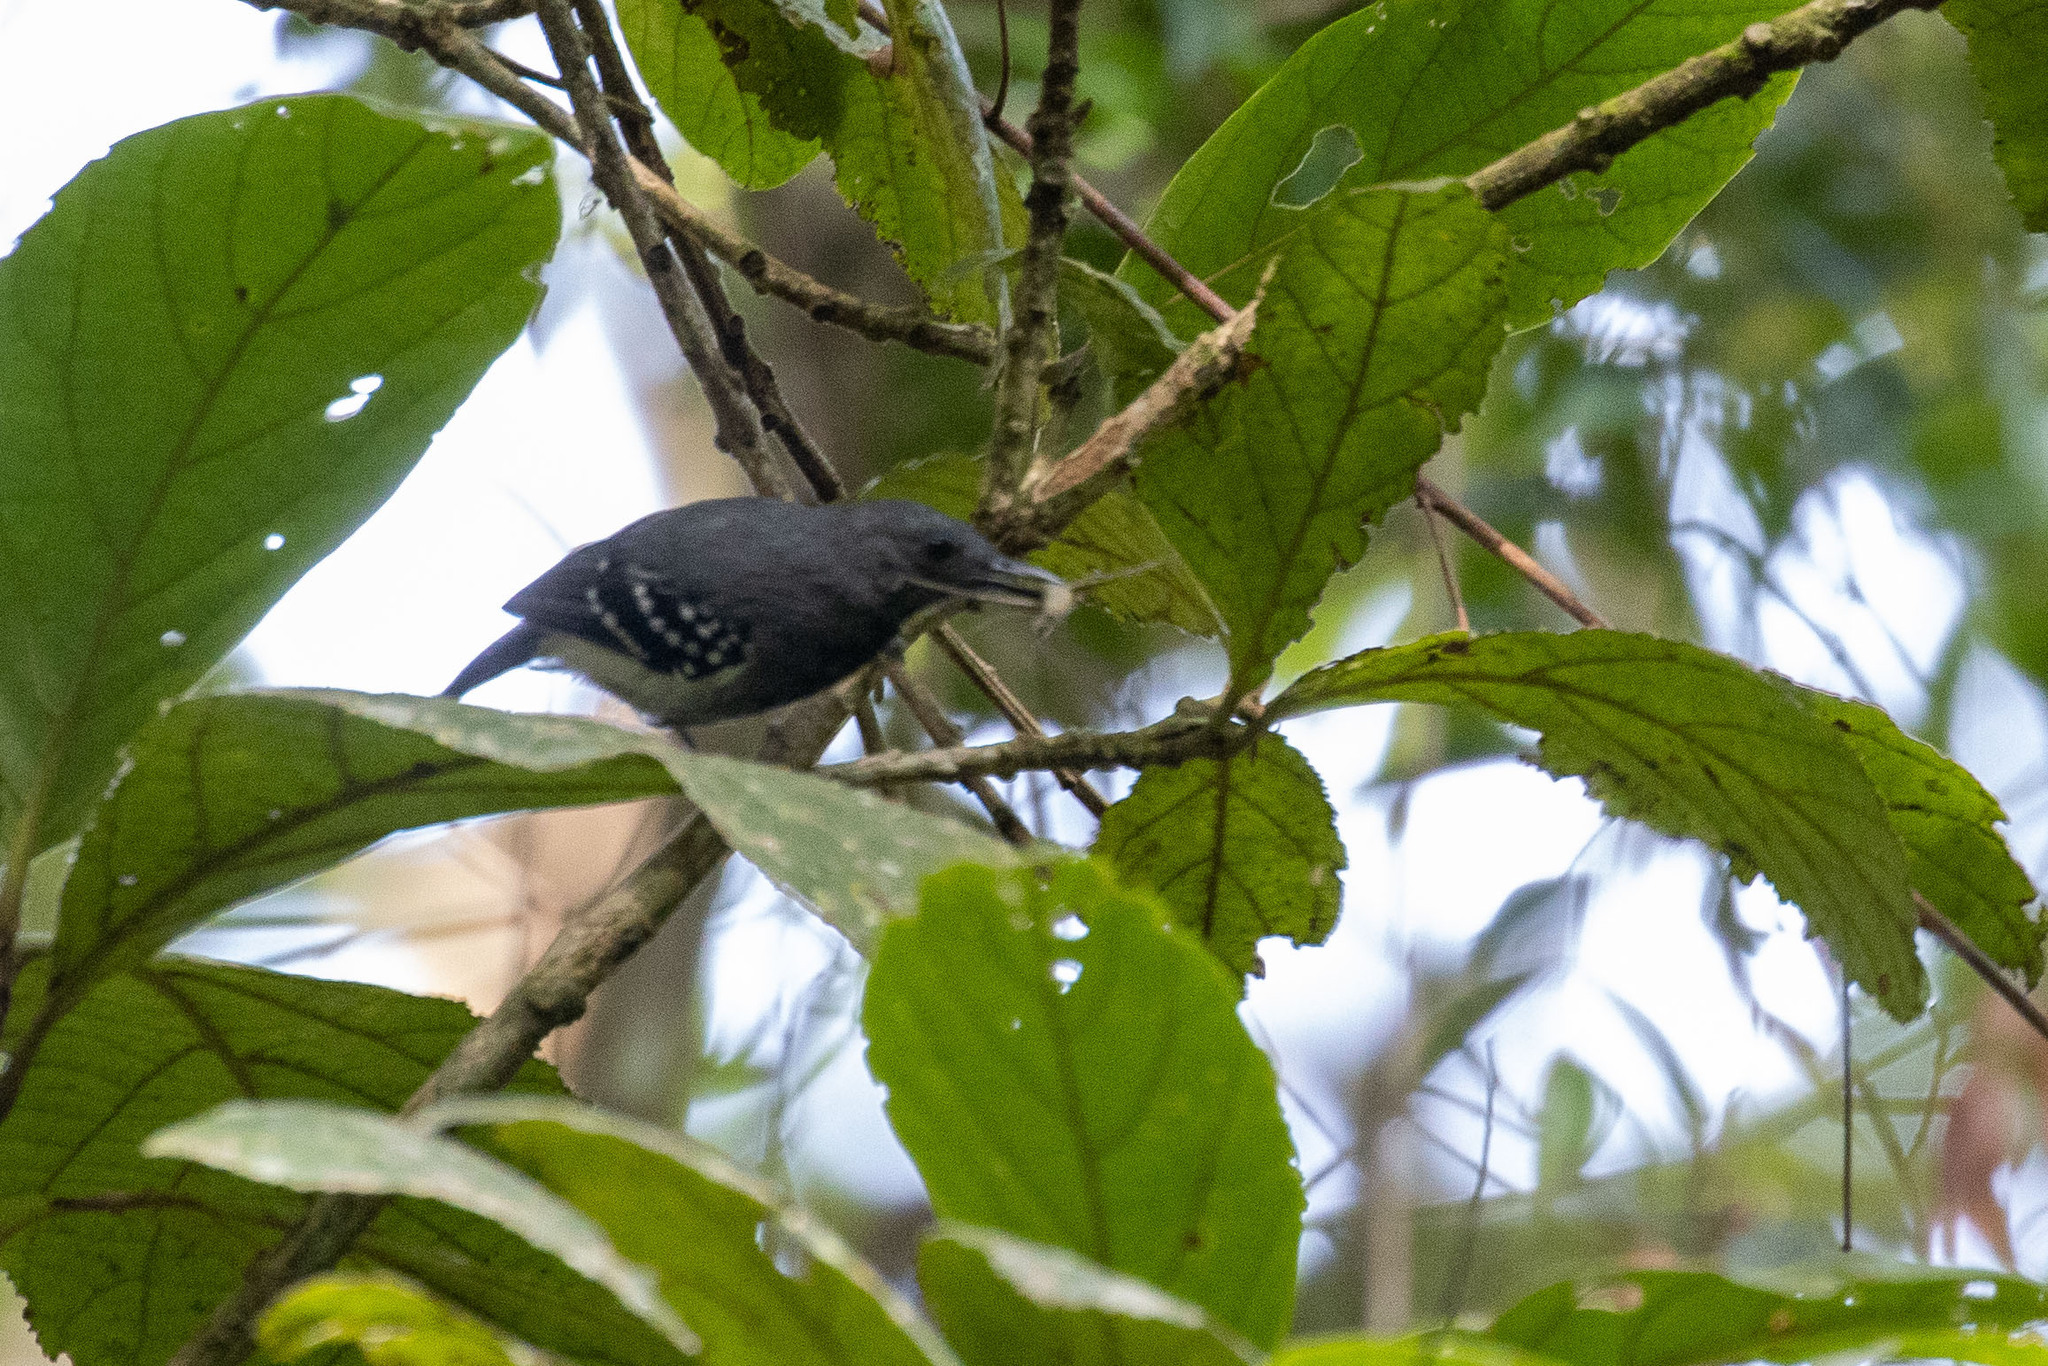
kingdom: Animalia
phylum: Chordata
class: Aves
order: Passeriformes
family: Thamnophilidae
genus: Myrmotherula
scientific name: Myrmotherula axillaris
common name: White-flanked antwren
